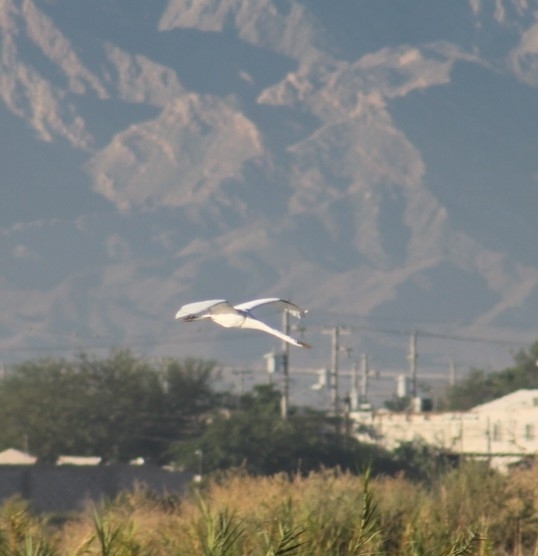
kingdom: Animalia
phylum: Chordata
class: Aves
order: Pelecaniformes
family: Ardeidae
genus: Ardea
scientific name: Ardea alba
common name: Great egret
